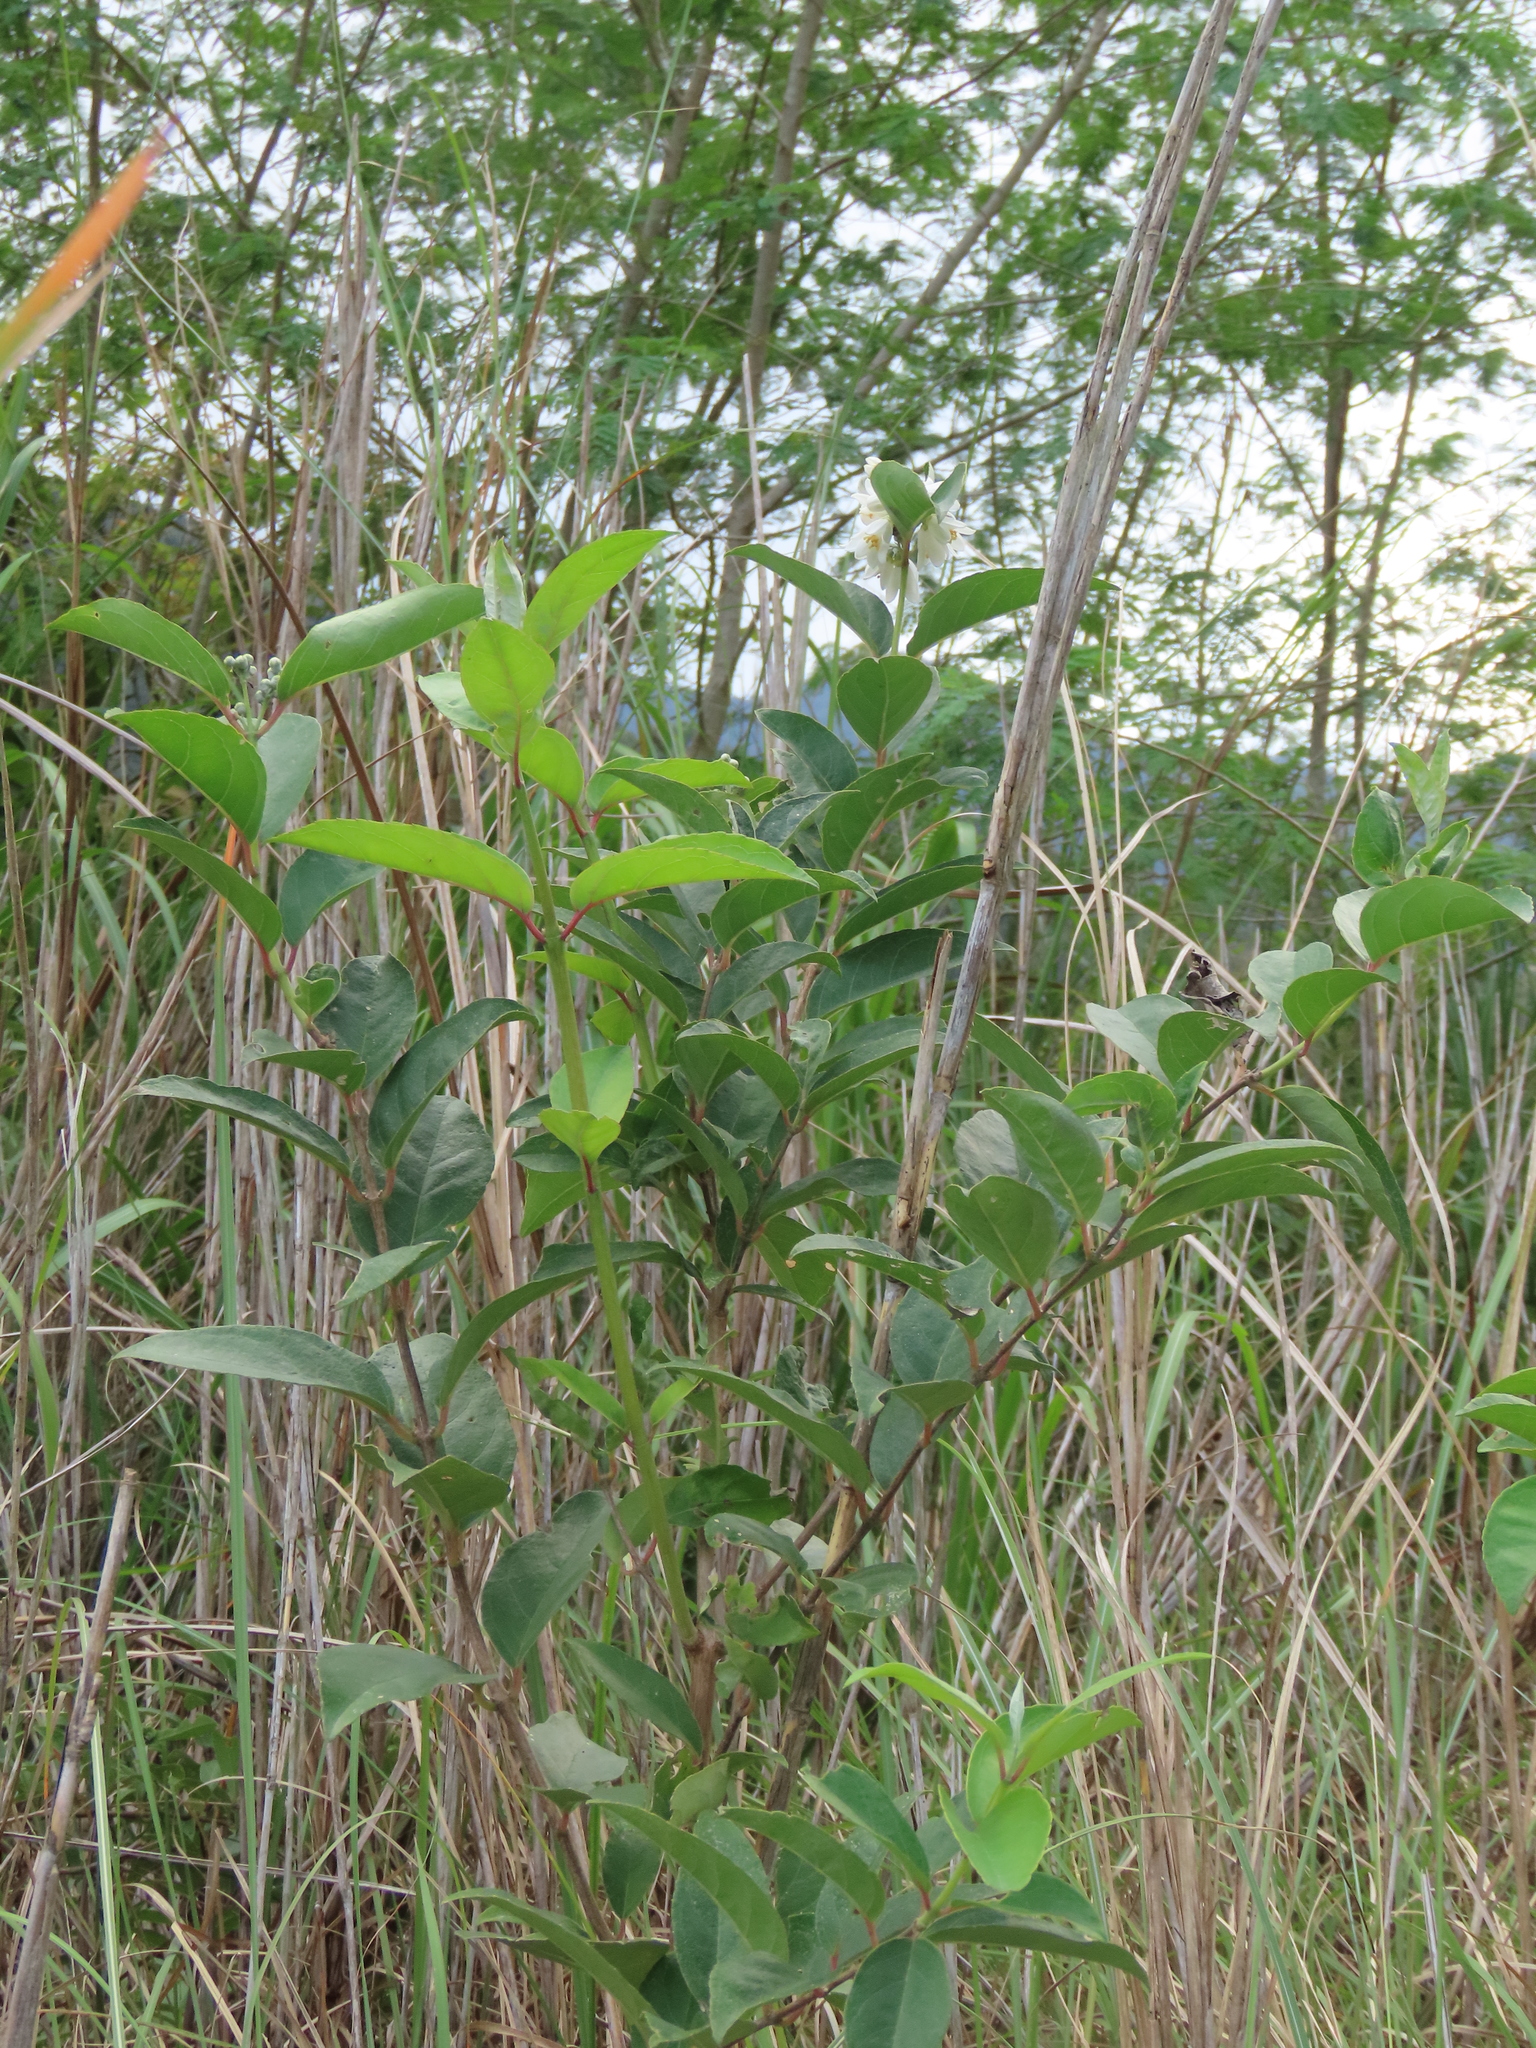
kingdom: Plantae
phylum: Tracheophyta
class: Magnoliopsida
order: Cornales
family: Hydrangeaceae
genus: Deutzia
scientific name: Deutzia pulchra
